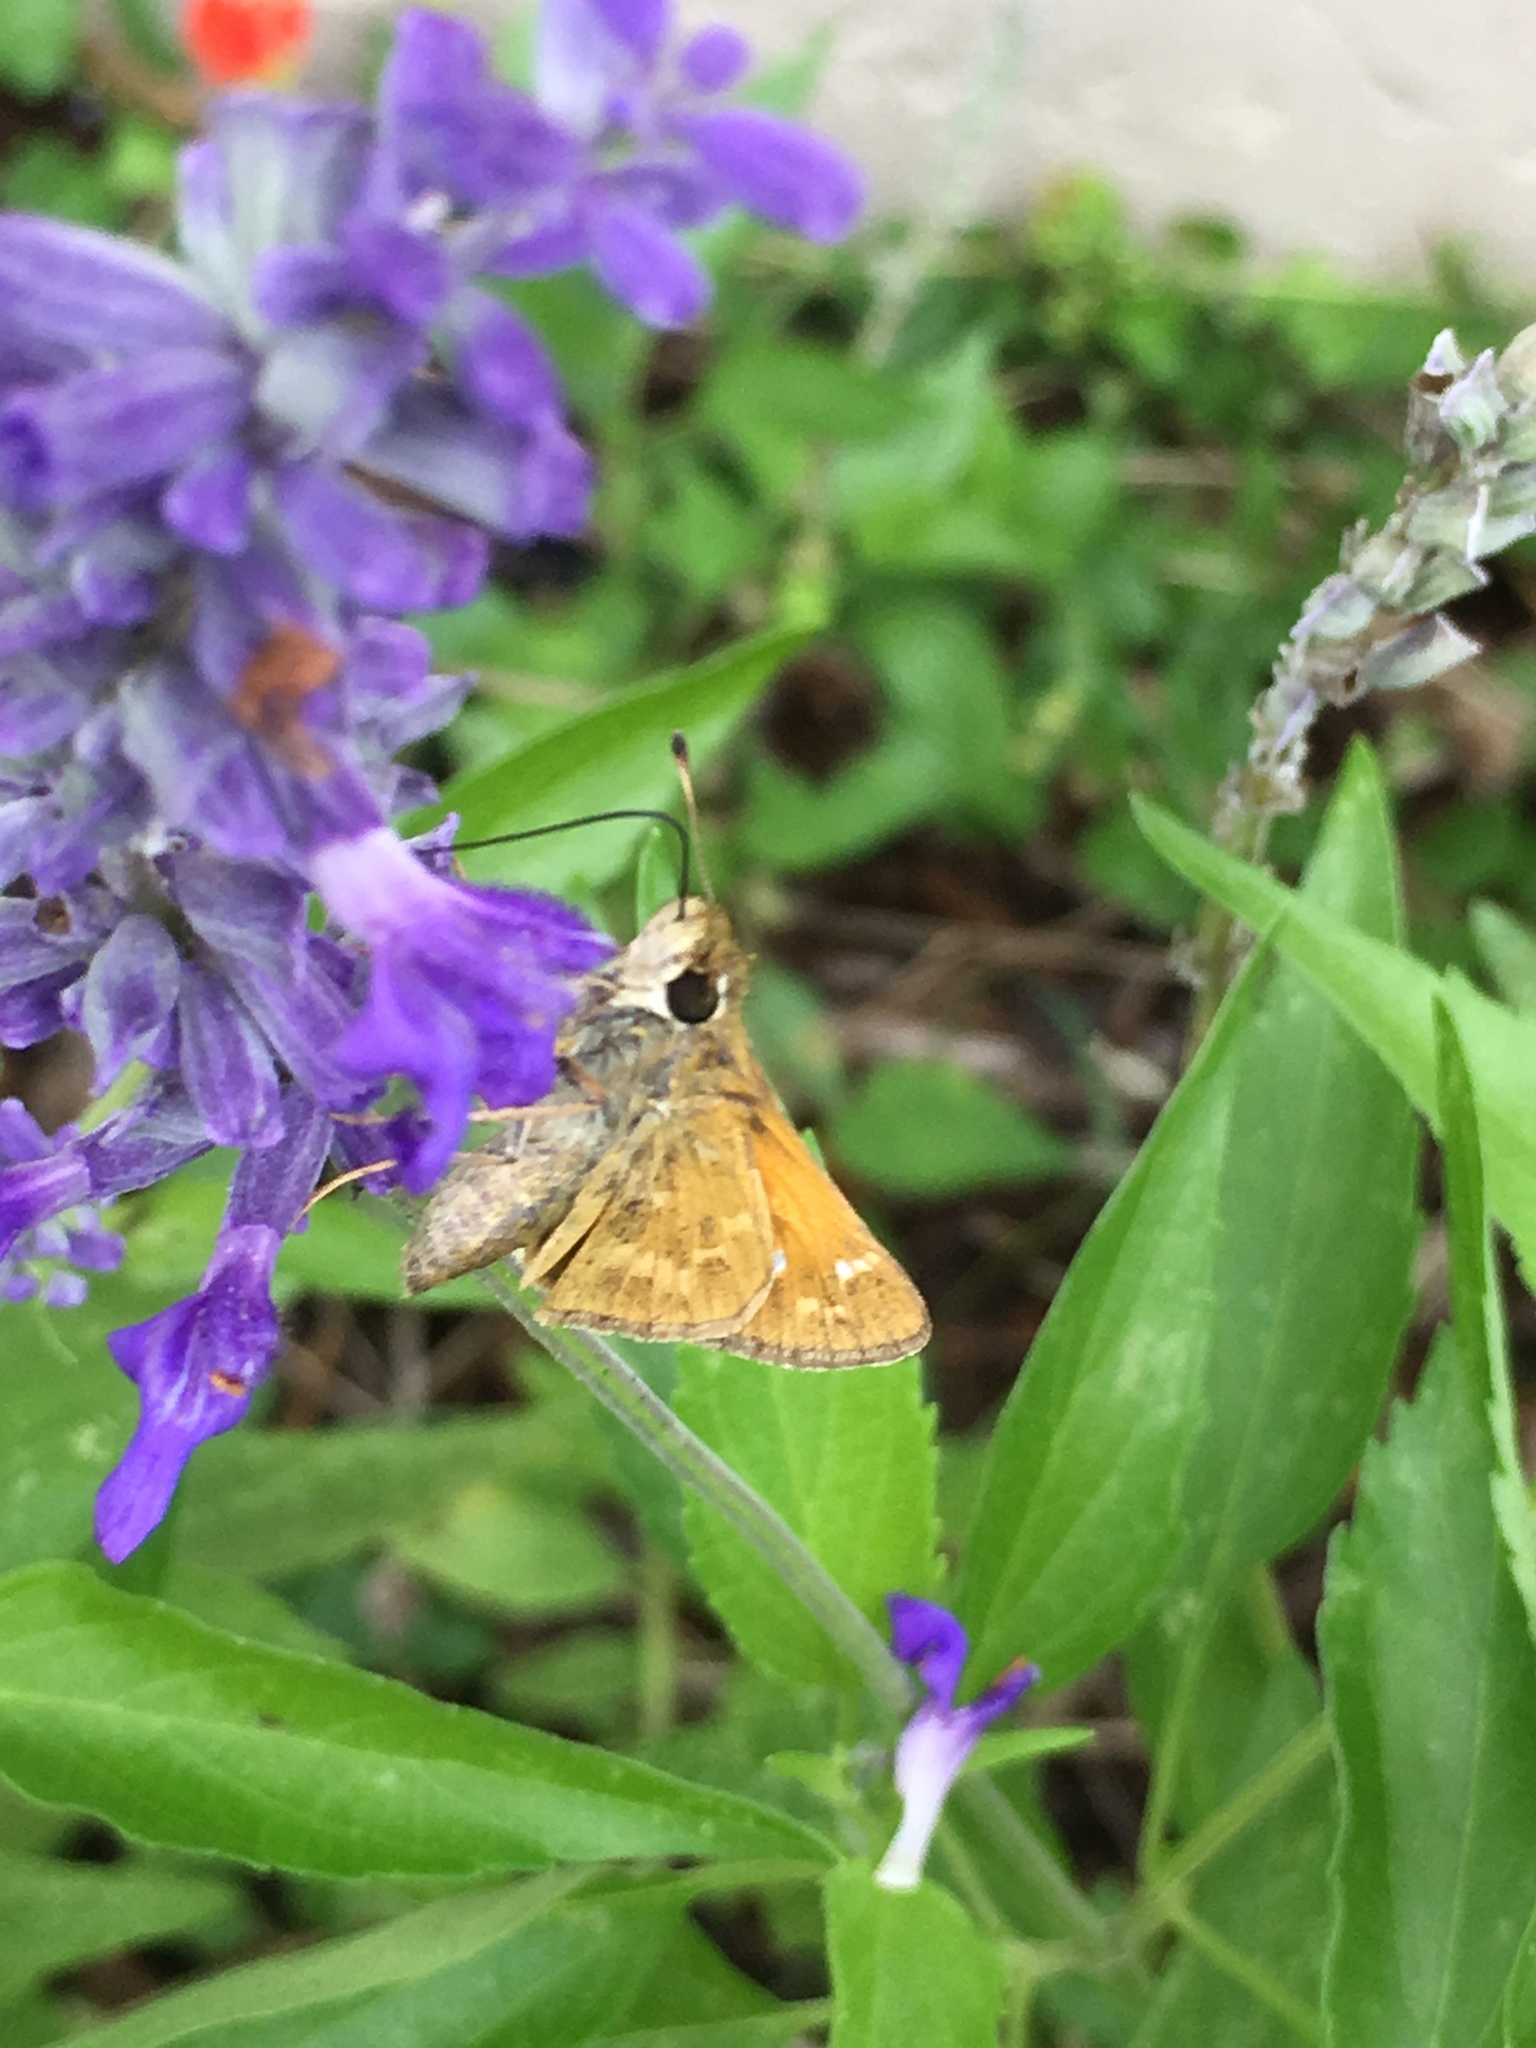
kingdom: Animalia
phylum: Arthropoda
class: Insecta
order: Lepidoptera
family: Hesperiidae
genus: Atalopedes
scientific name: Atalopedes
